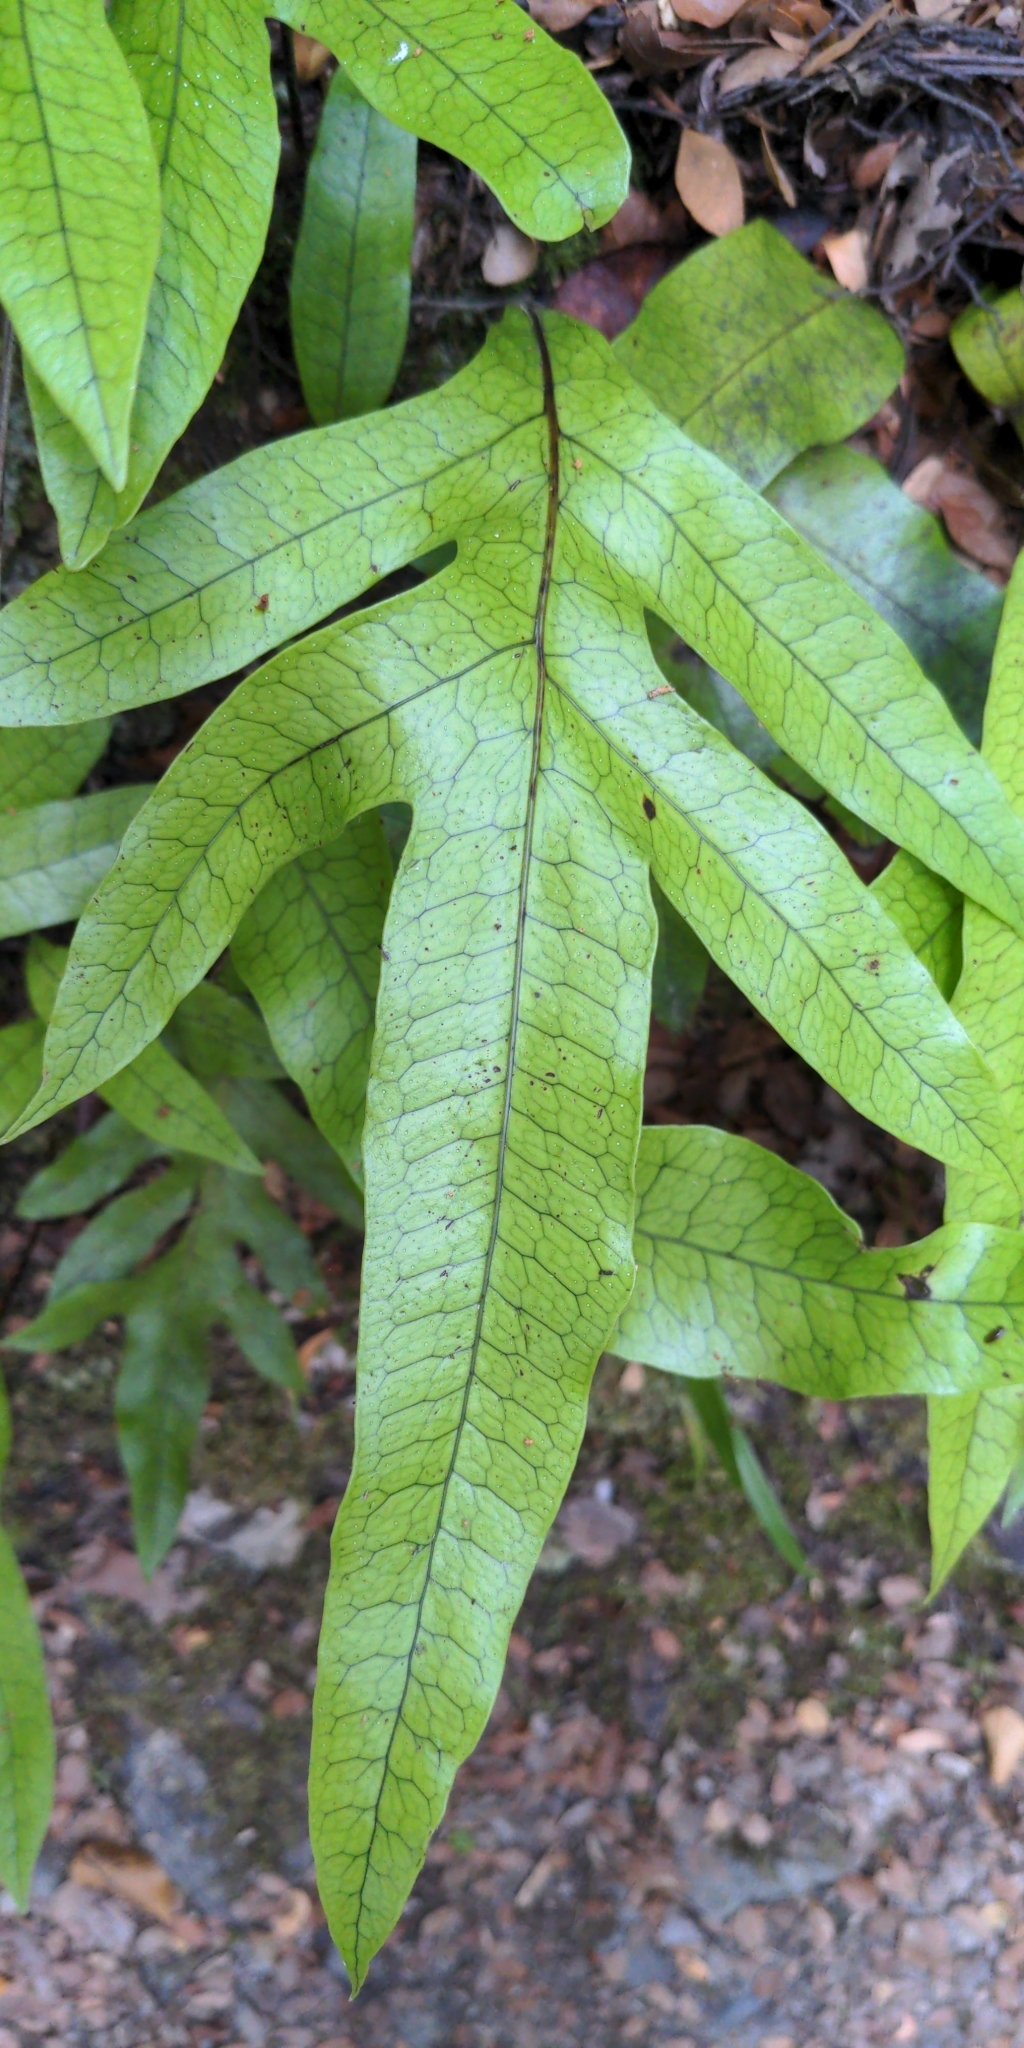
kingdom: Plantae
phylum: Tracheophyta
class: Polypodiopsida
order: Polypodiales
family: Polypodiaceae
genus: Lecanopteris
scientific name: Lecanopteris pustulata
